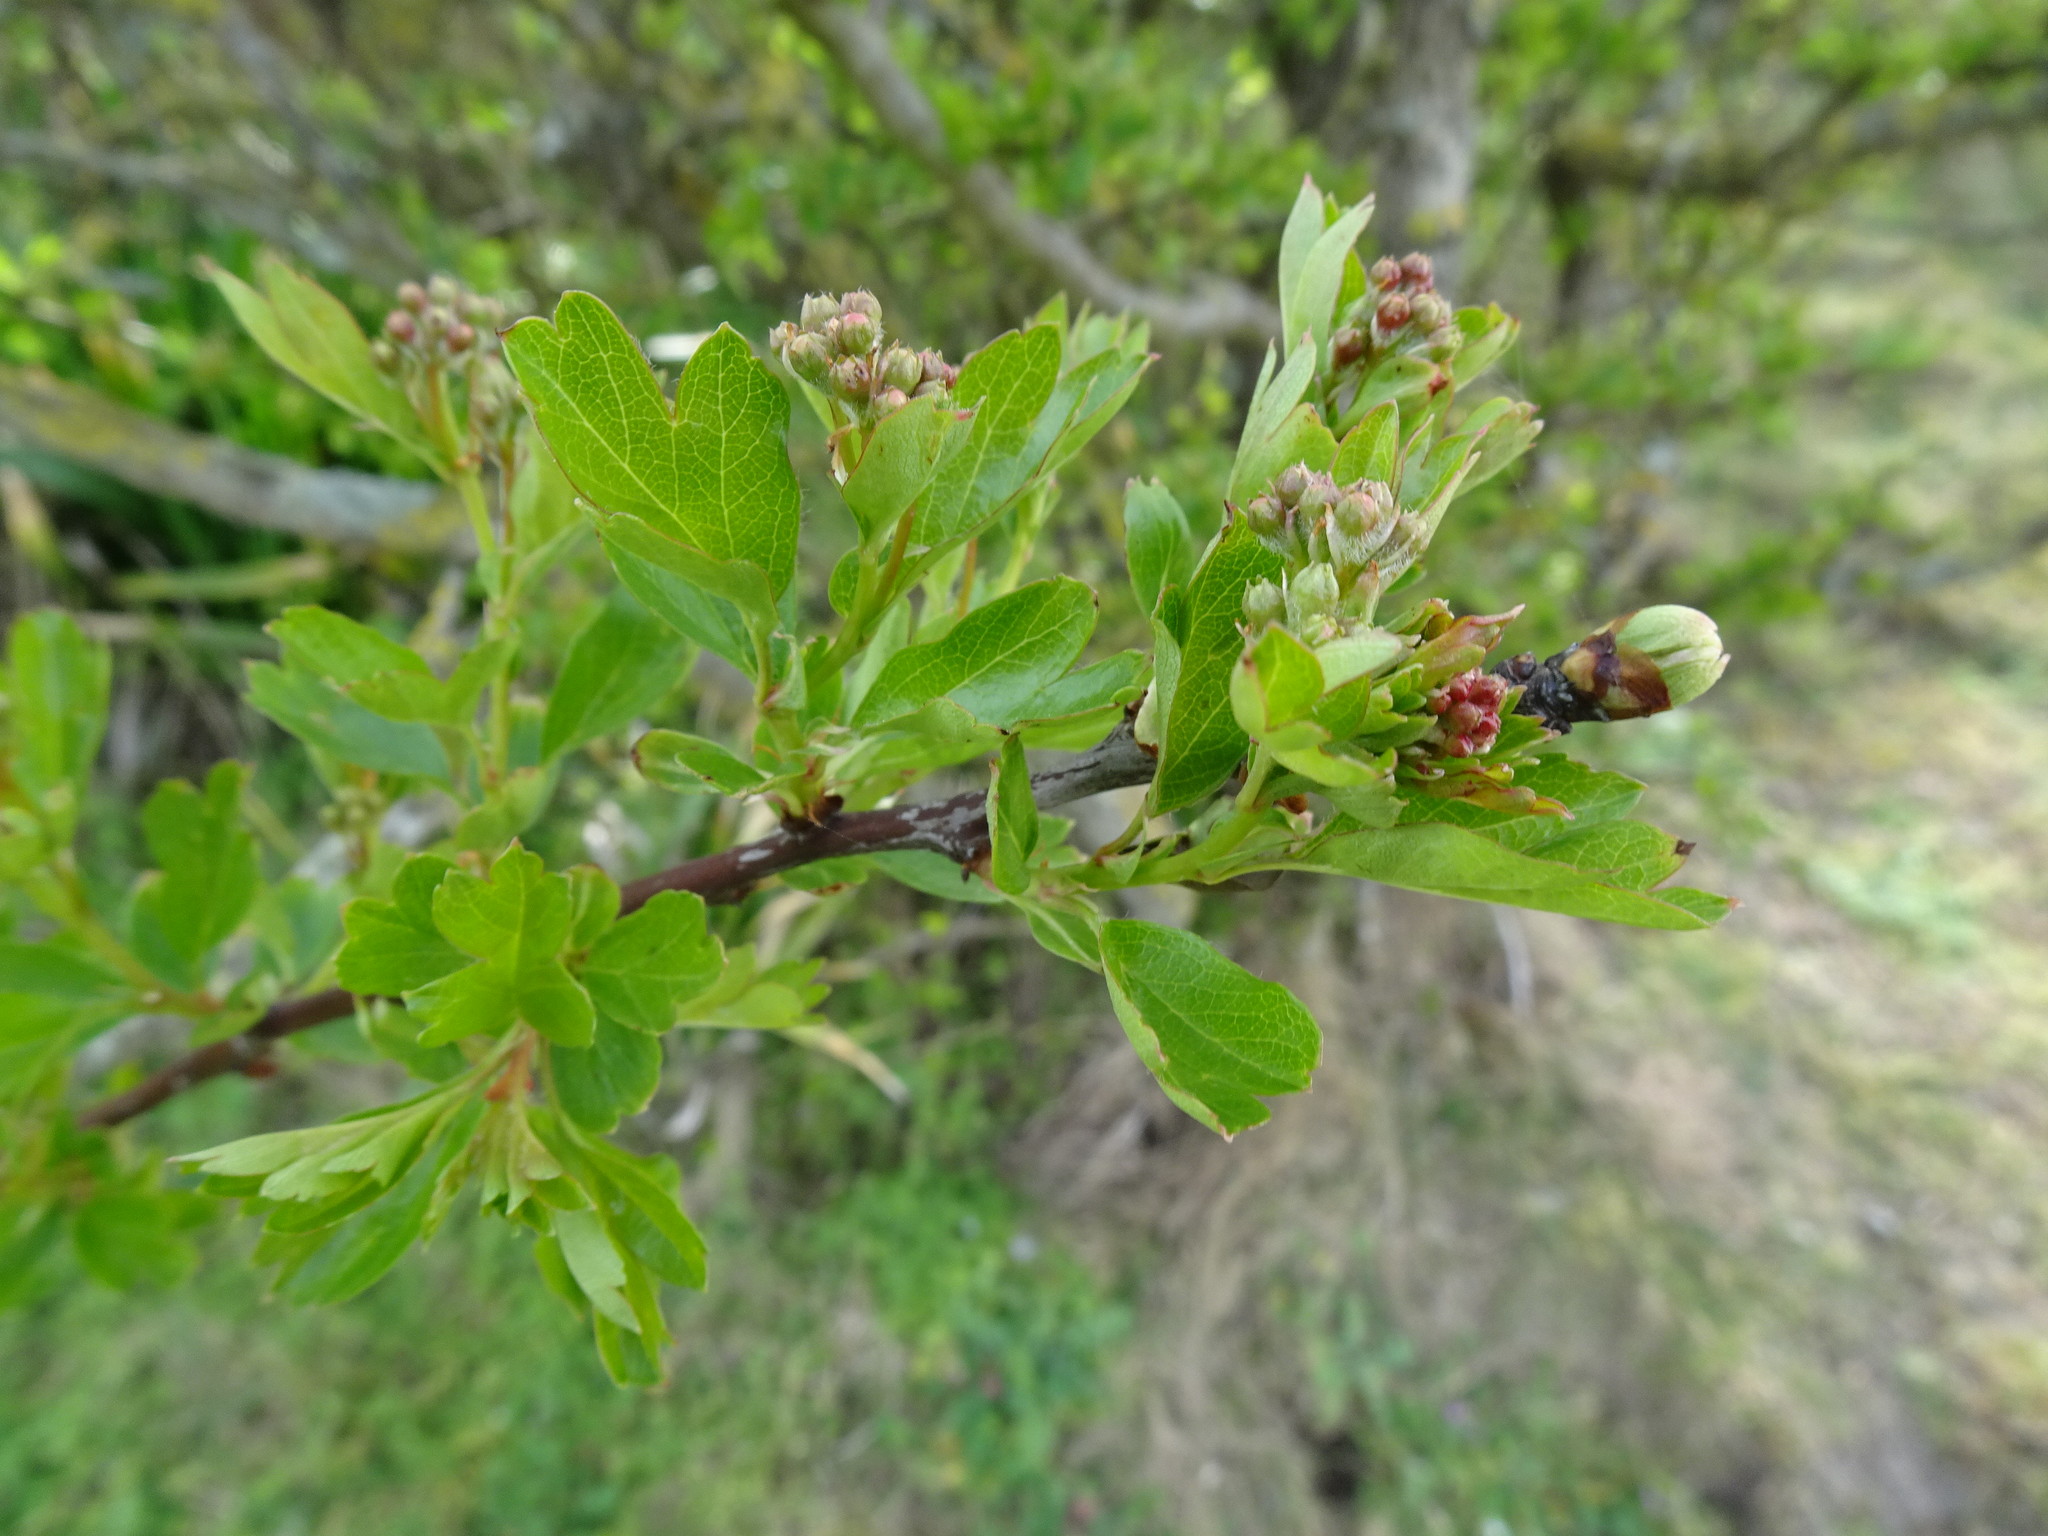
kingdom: Plantae
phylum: Tracheophyta
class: Magnoliopsida
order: Rosales
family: Rosaceae
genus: Crataegus
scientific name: Crataegus monogyna
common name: Hawthorn
